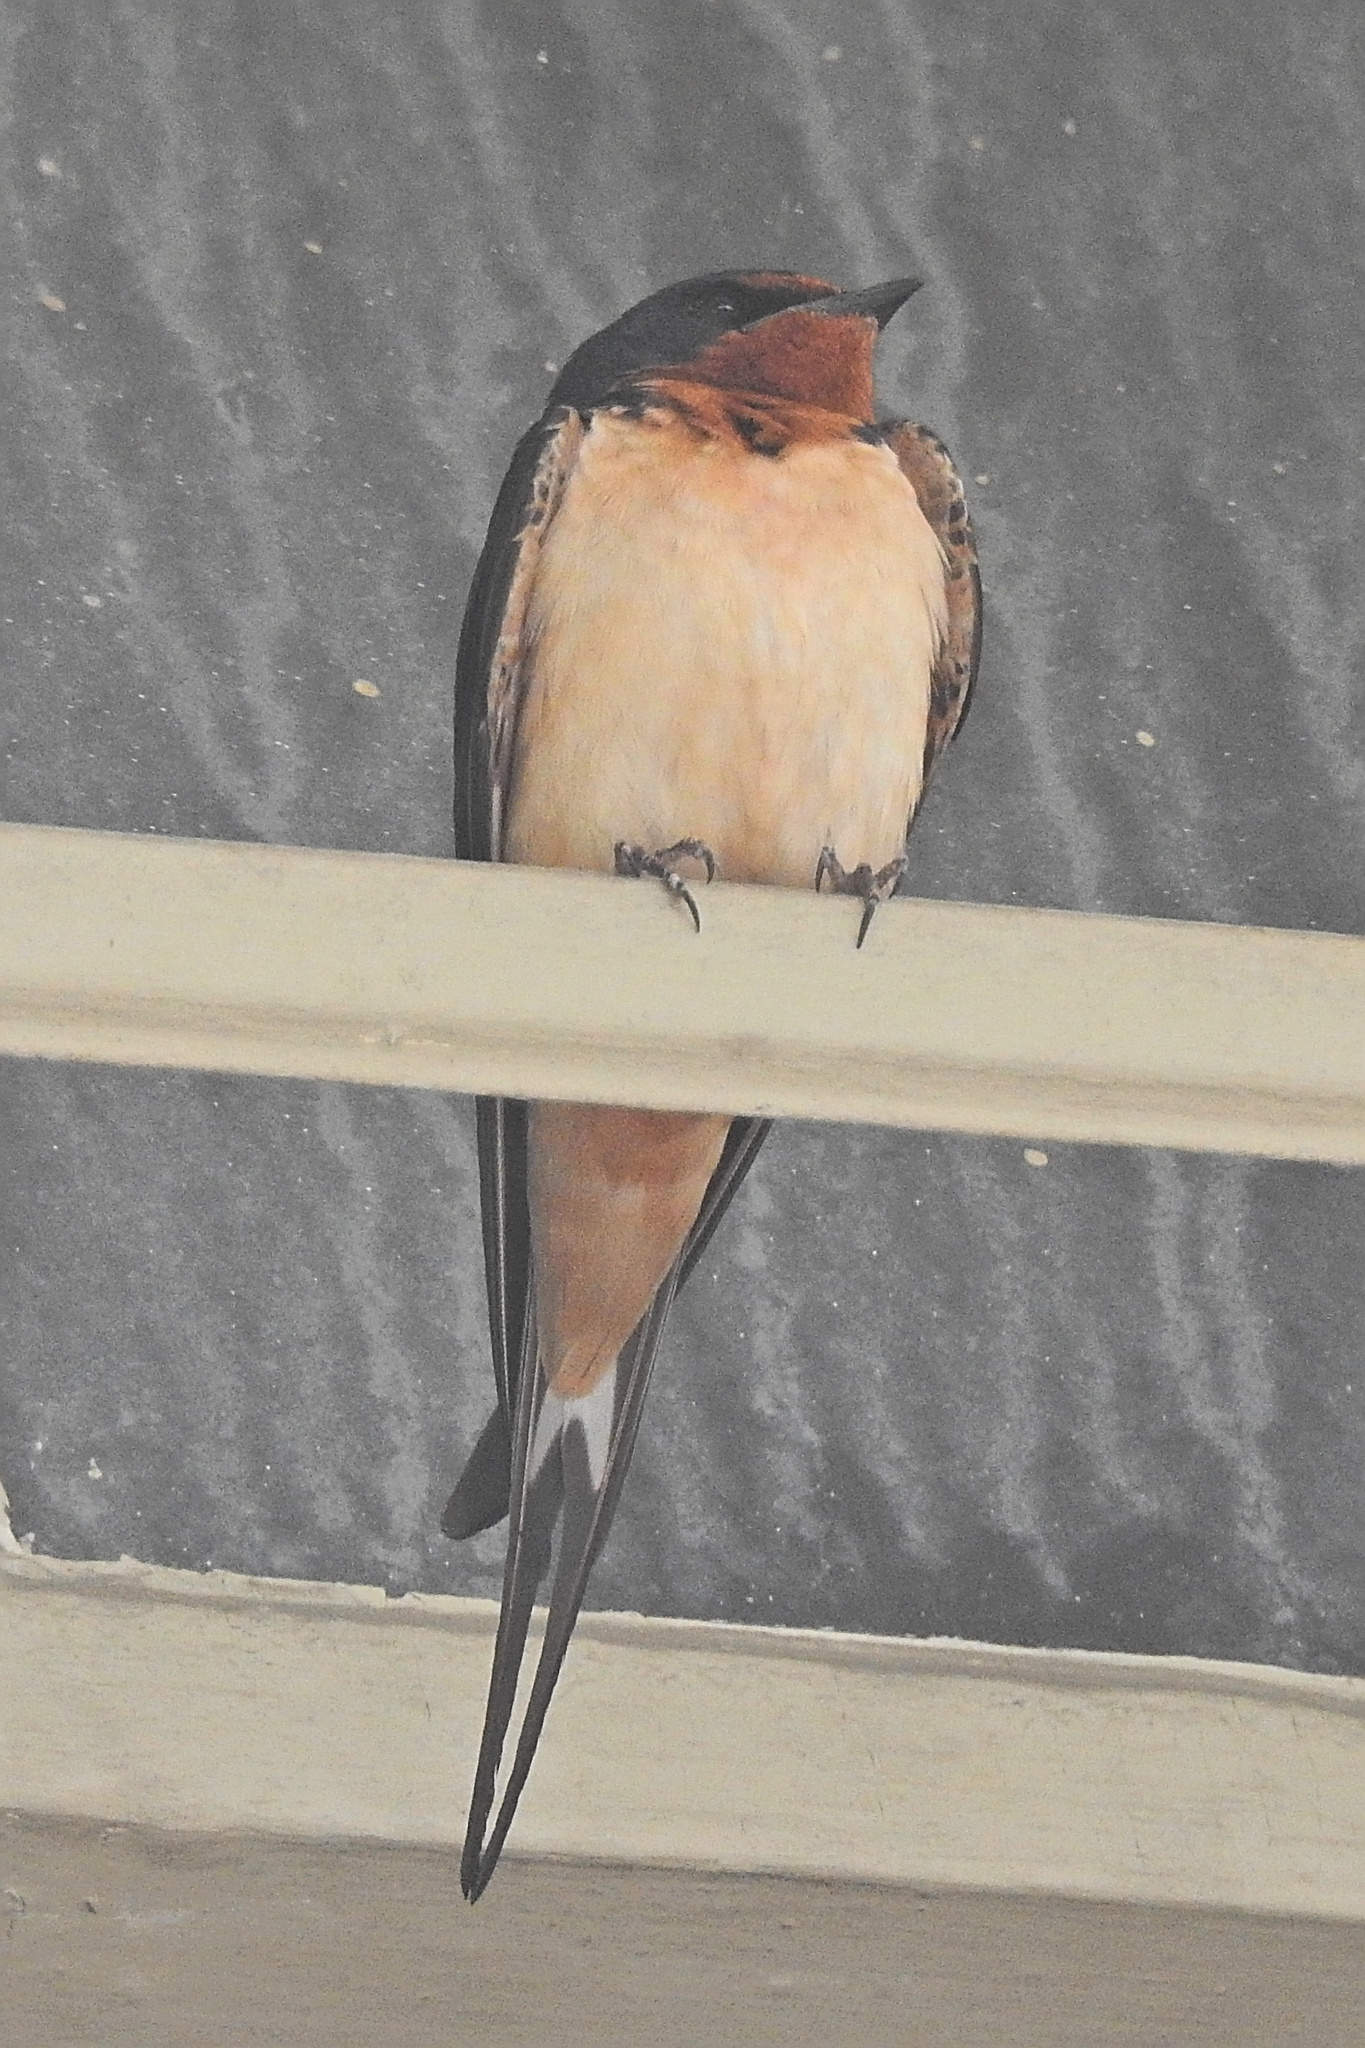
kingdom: Animalia
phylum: Chordata
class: Aves
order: Passeriformes
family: Hirundinidae
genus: Hirundo
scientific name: Hirundo rustica
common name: Barn swallow
